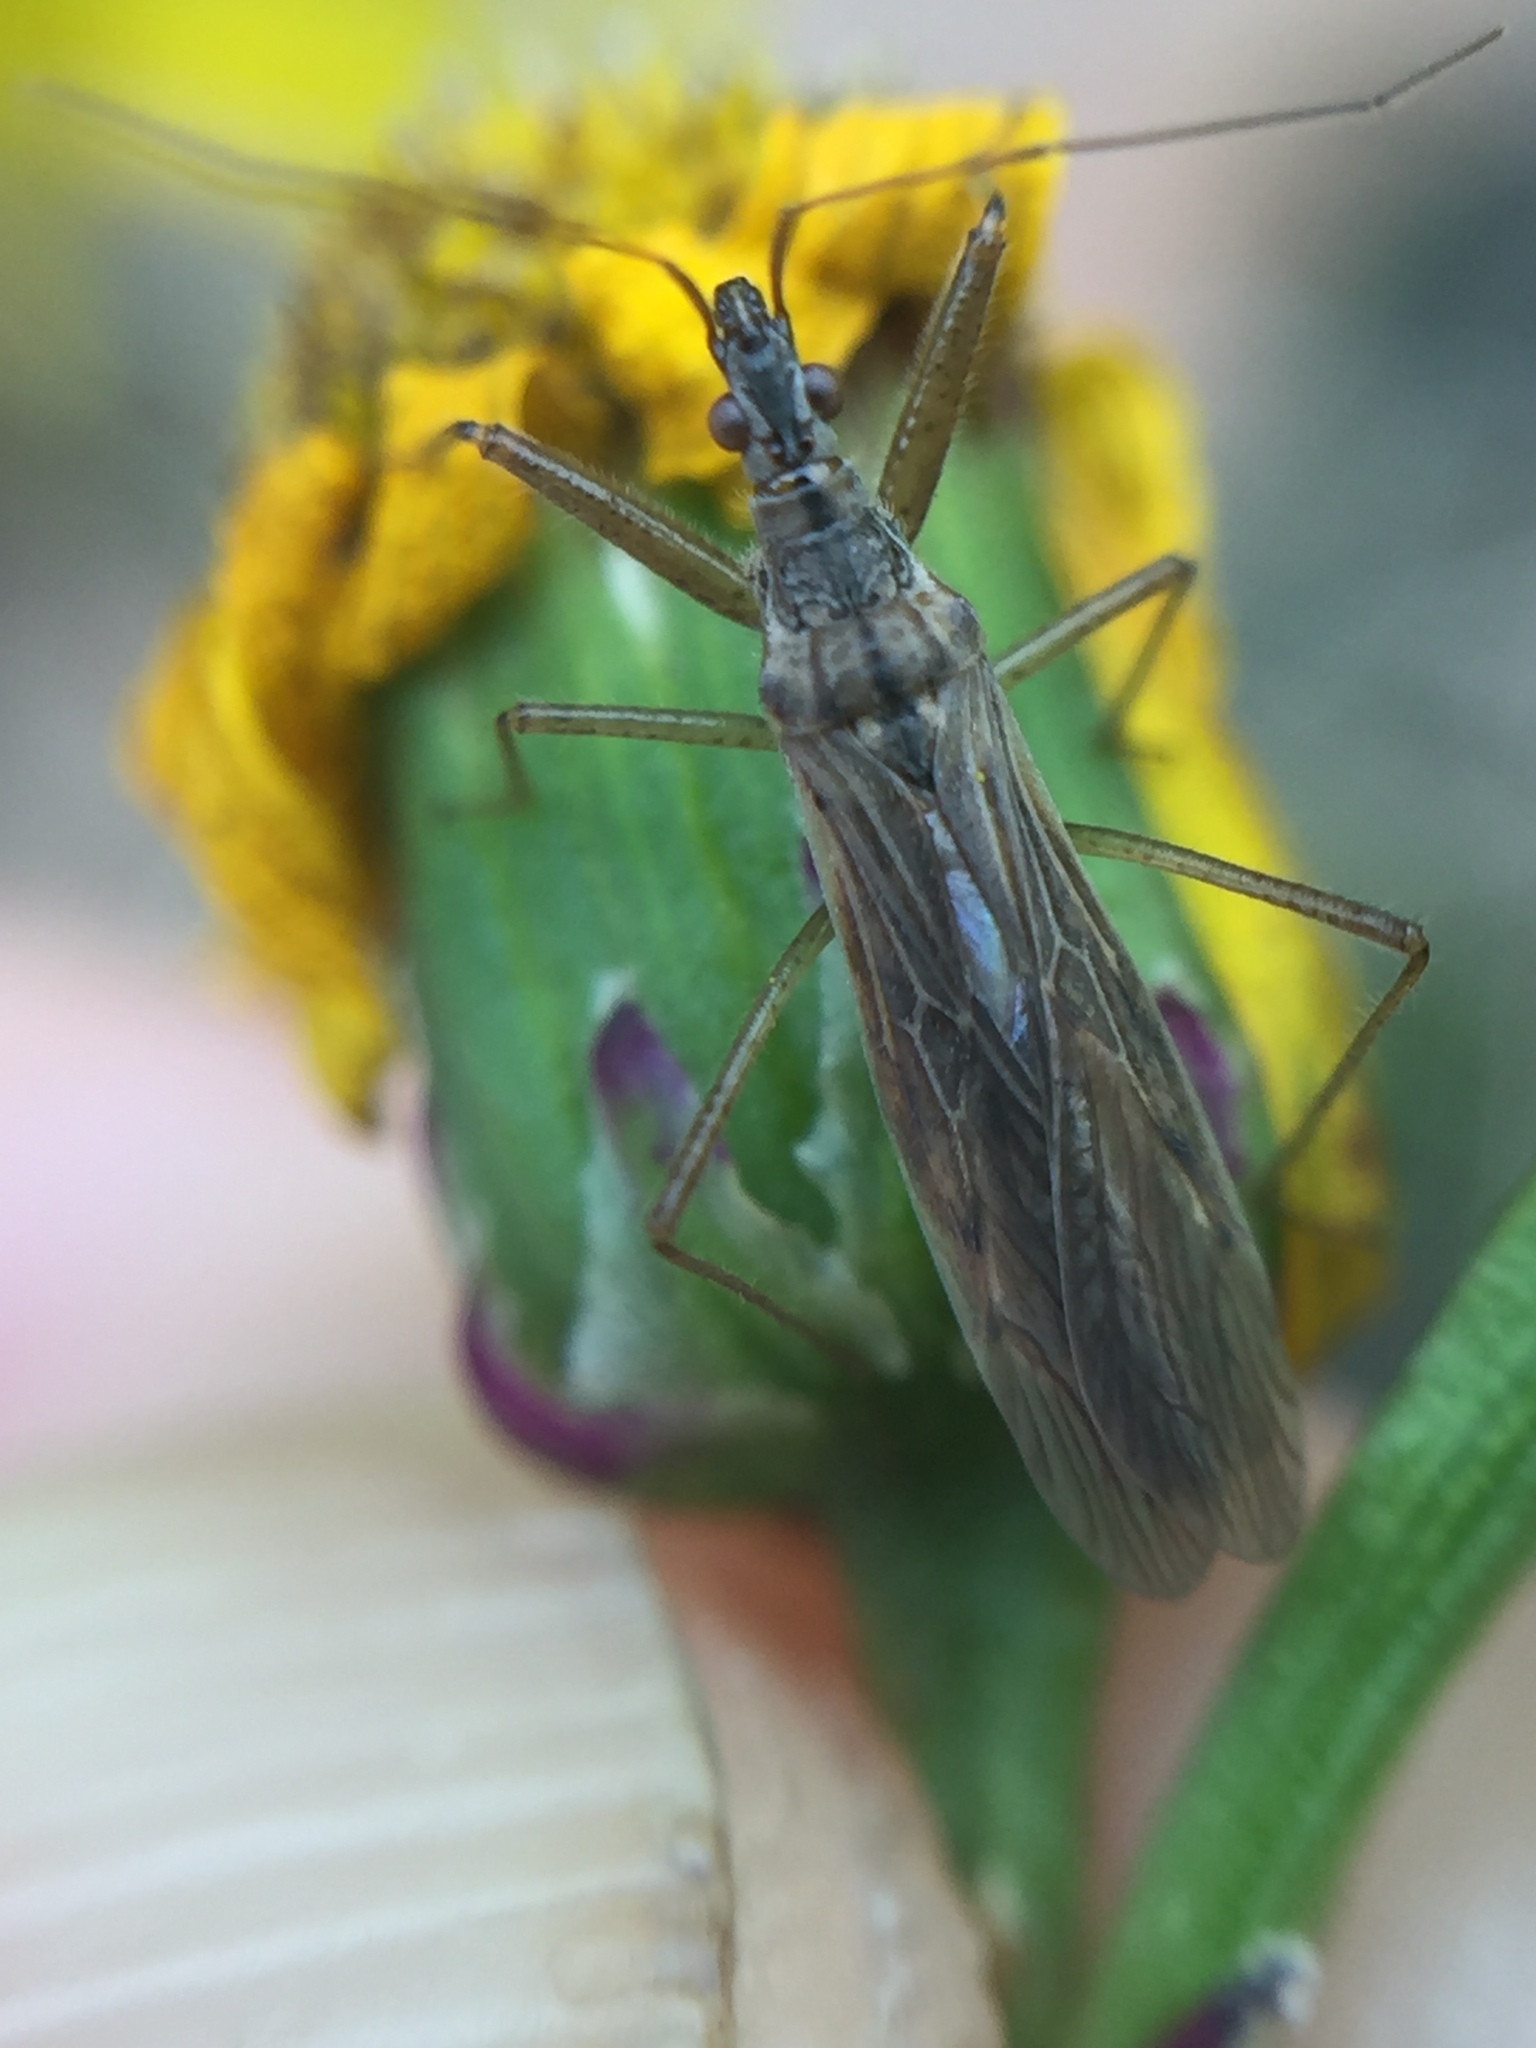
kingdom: Animalia
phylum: Arthropoda
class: Insecta
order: Hemiptera
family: Nabidae
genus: Nabis
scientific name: Nabis kinbergii
